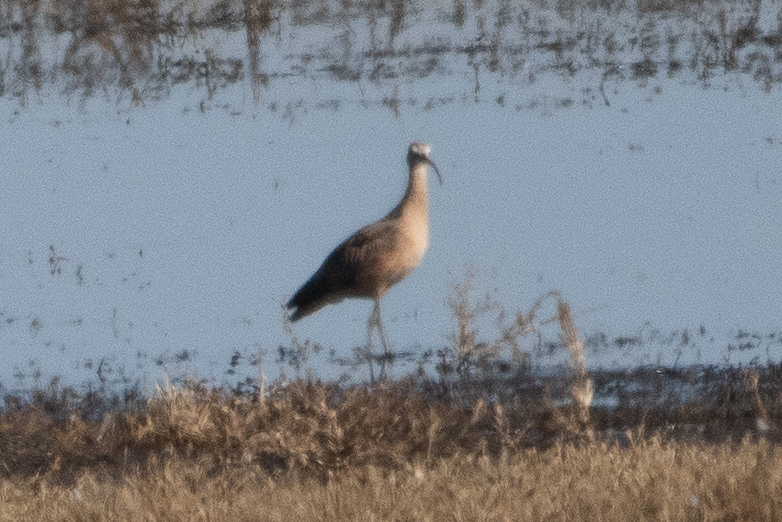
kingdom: Animalia
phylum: Chordata
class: Aves
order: Charadriiformes
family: Scolopacidae
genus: Numenius
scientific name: Numenius americanus
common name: Long-billed curlew
